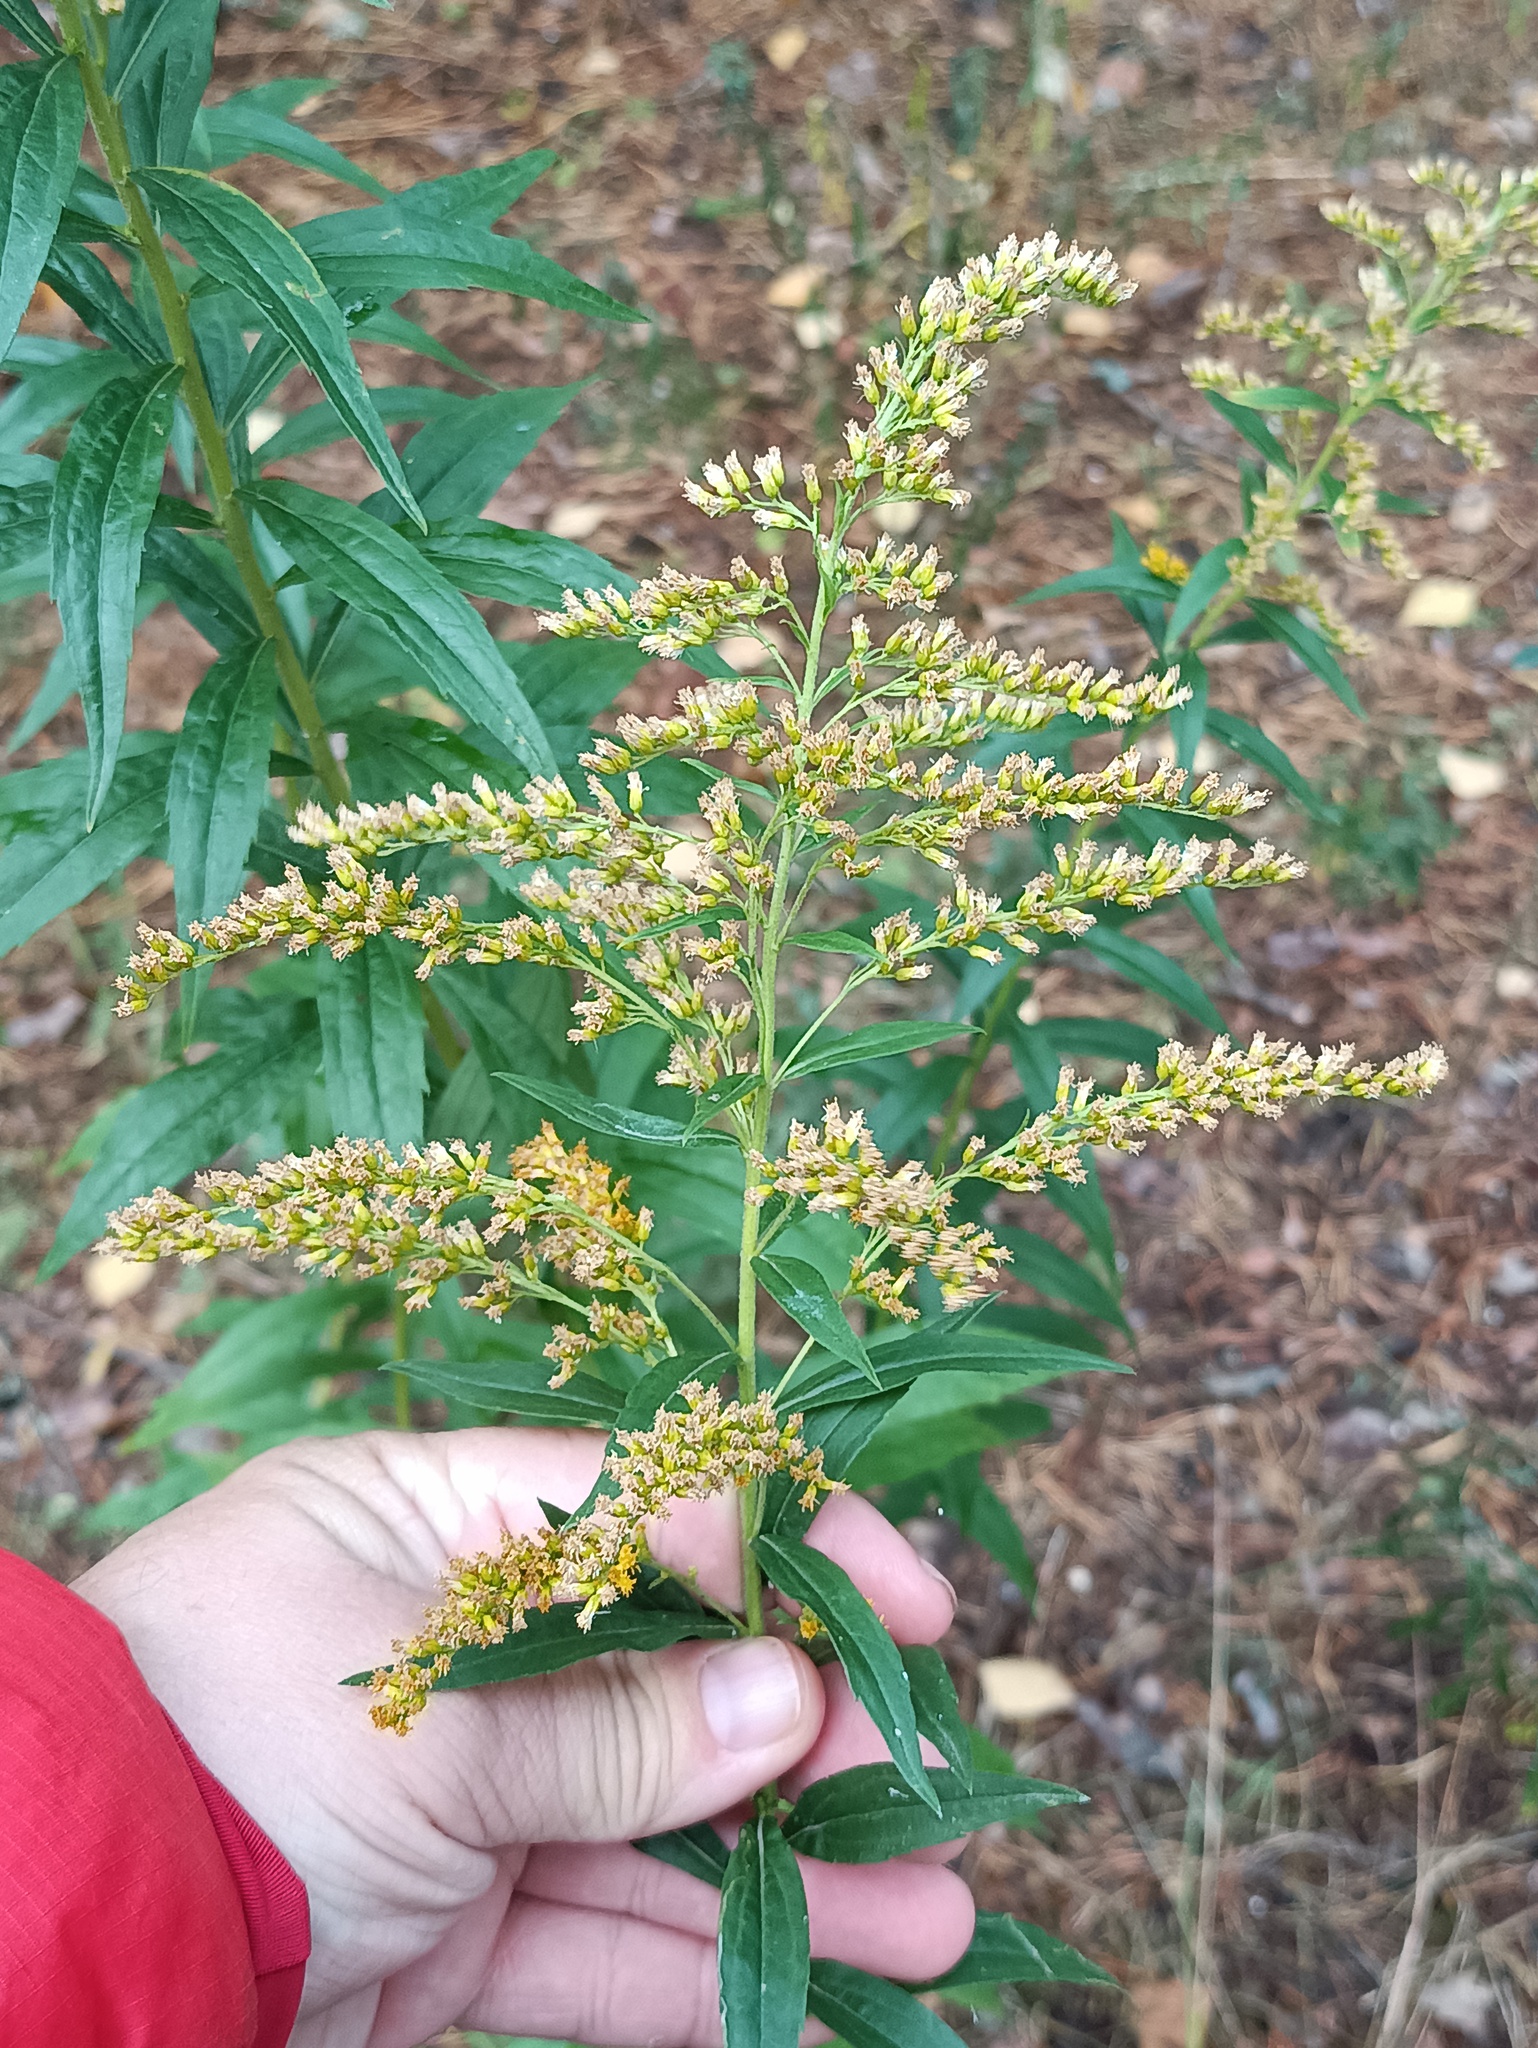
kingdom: Plantae
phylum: Tracheophyta
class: Magnoliopsida
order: Asterales
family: Asteraceae
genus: Solidago
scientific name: Solidago canadensis
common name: Canada goldenrod
